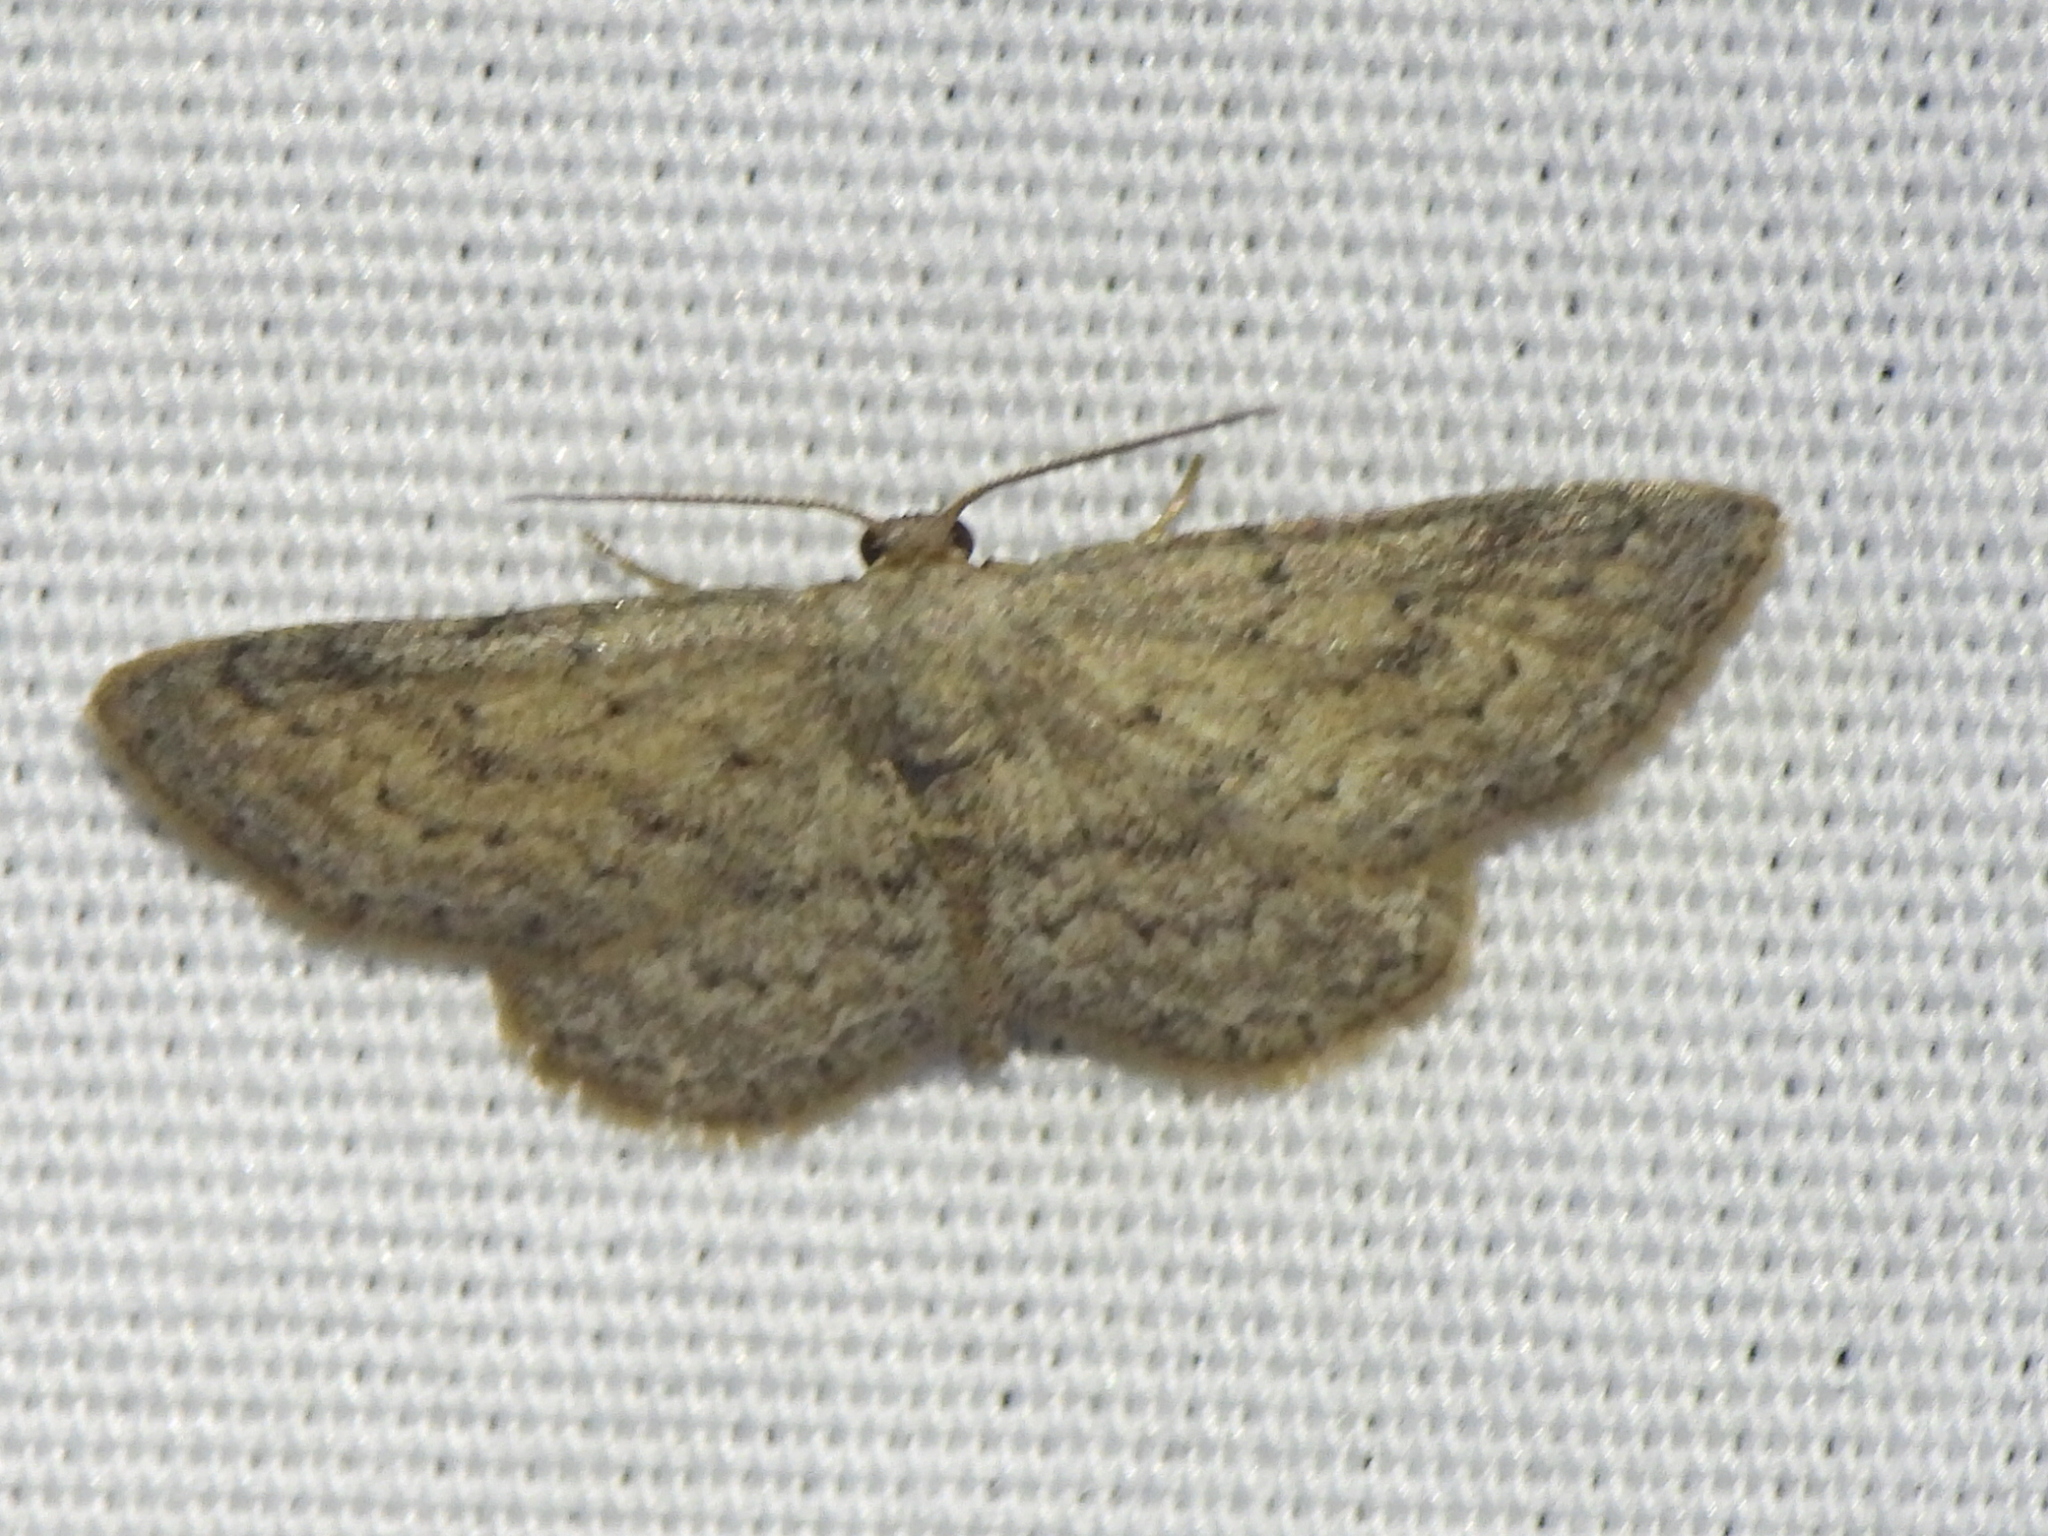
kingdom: Animalia
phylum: Arthropoda
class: Insecta
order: Lepidoptera
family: Geometridae
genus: Lobocleta
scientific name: Lobocleta ossularia
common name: Drab brown wave
